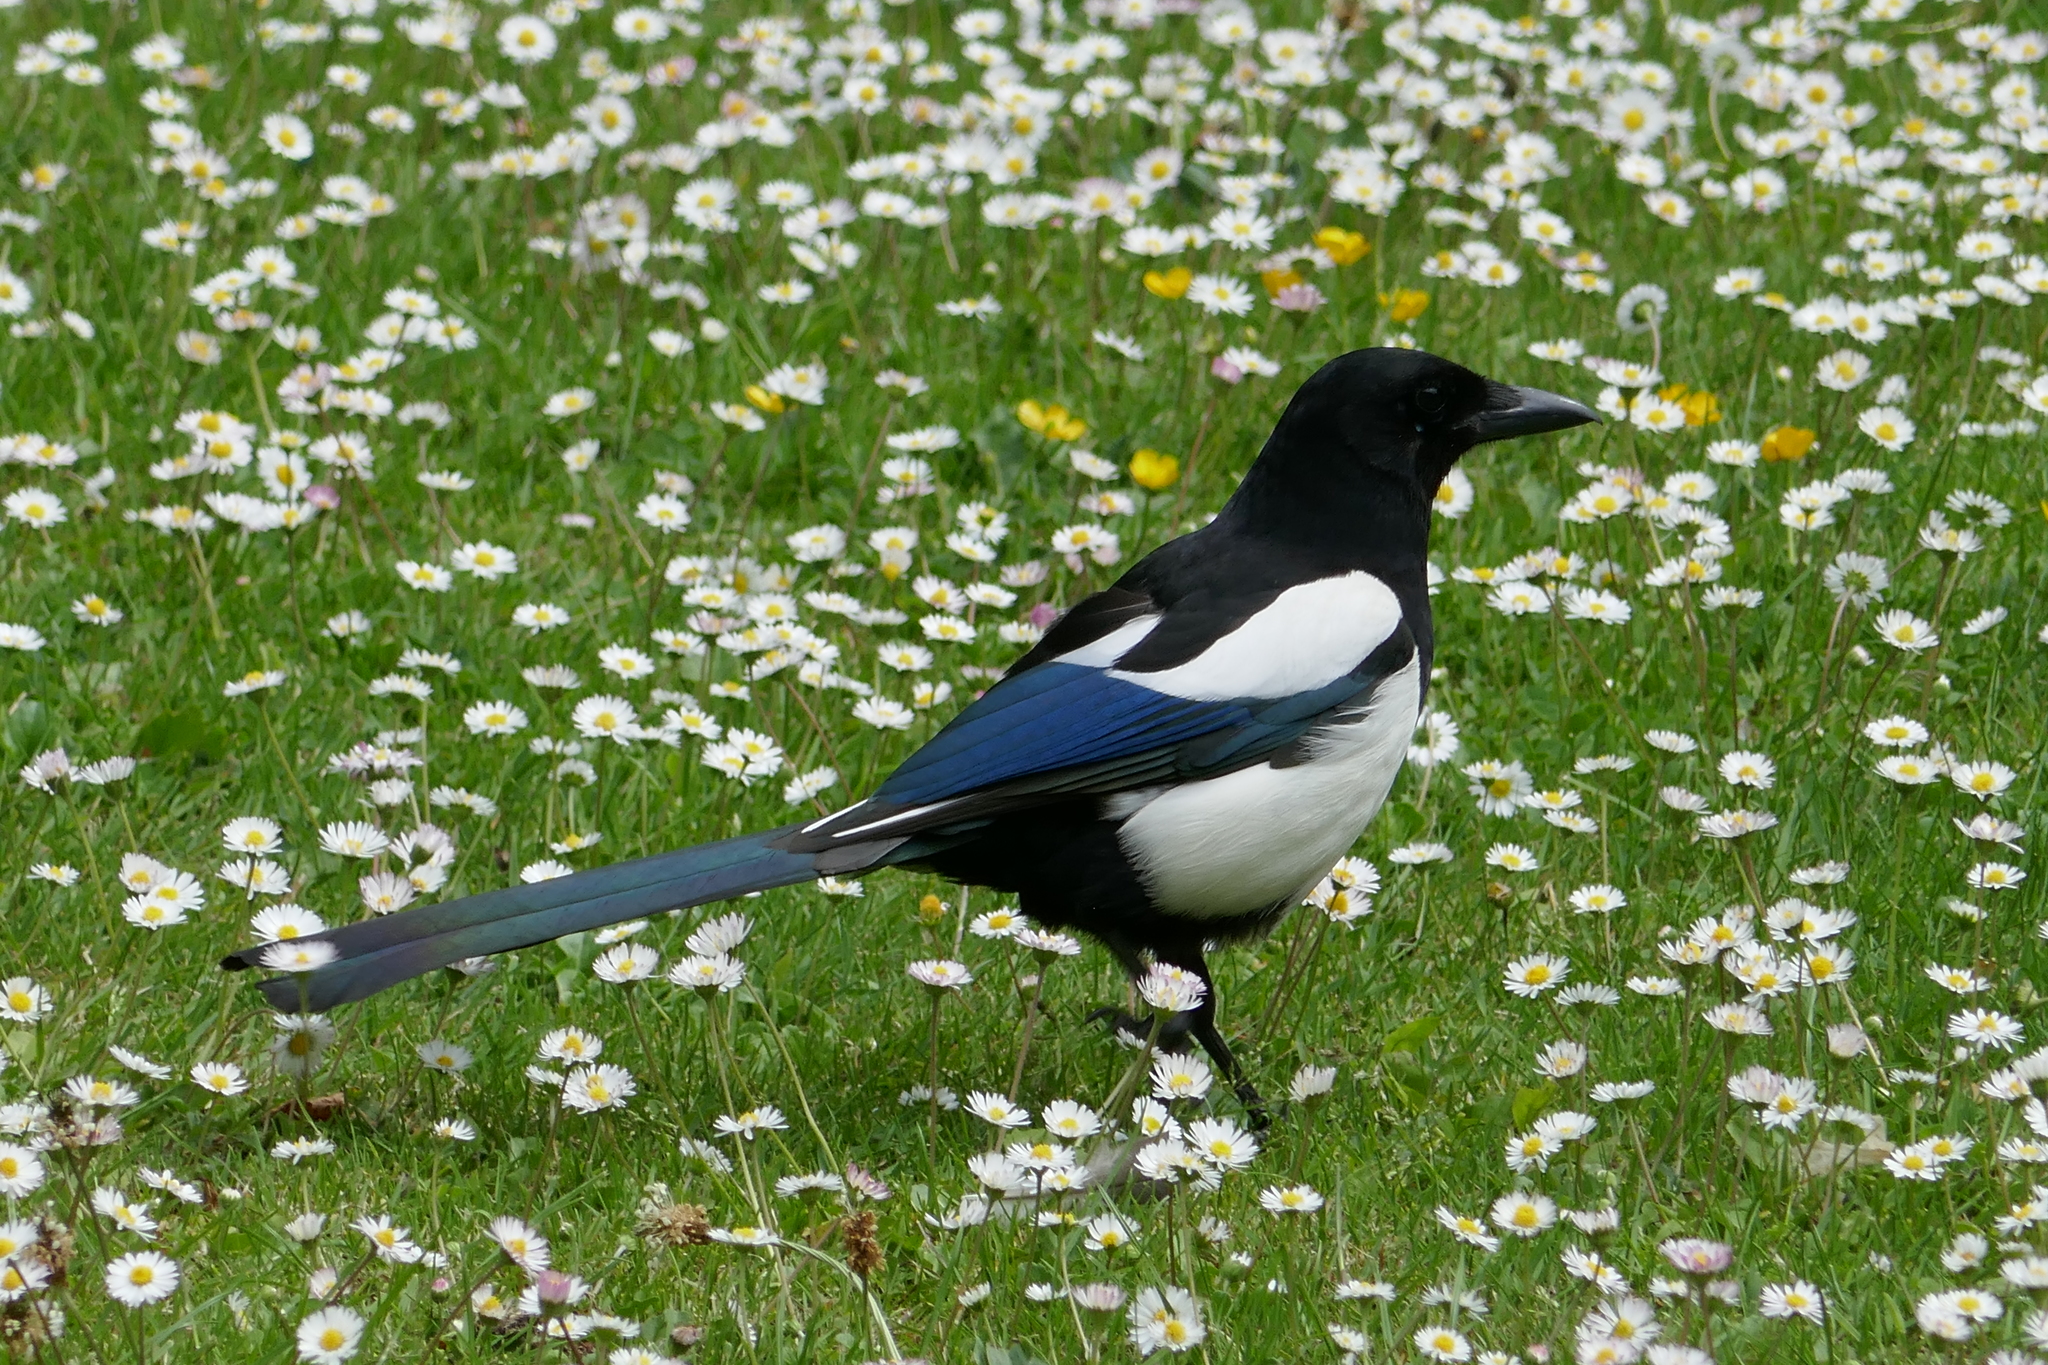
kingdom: Animalia
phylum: Chordata
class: Aves
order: Passeriformes
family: Corvidae
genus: Pica
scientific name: Pica pica
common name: Eurasian magpie
